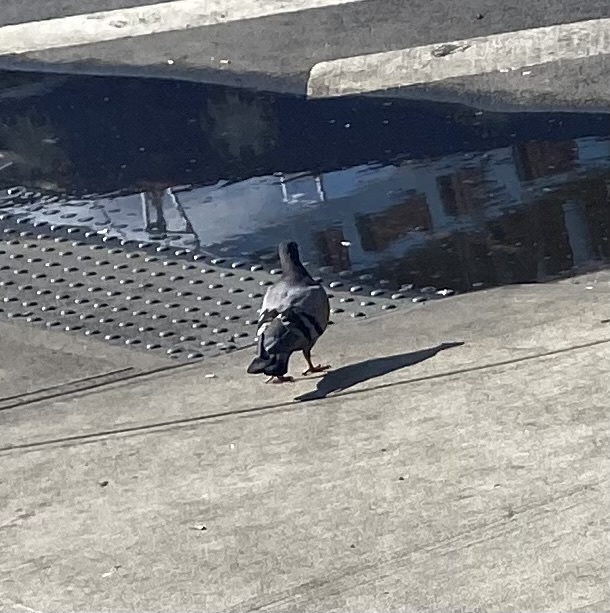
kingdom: Animalia
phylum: Chordata
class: Aves
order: Columbiformes
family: Columbidae
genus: Columba
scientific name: Columba livia
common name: Rock pigeon
